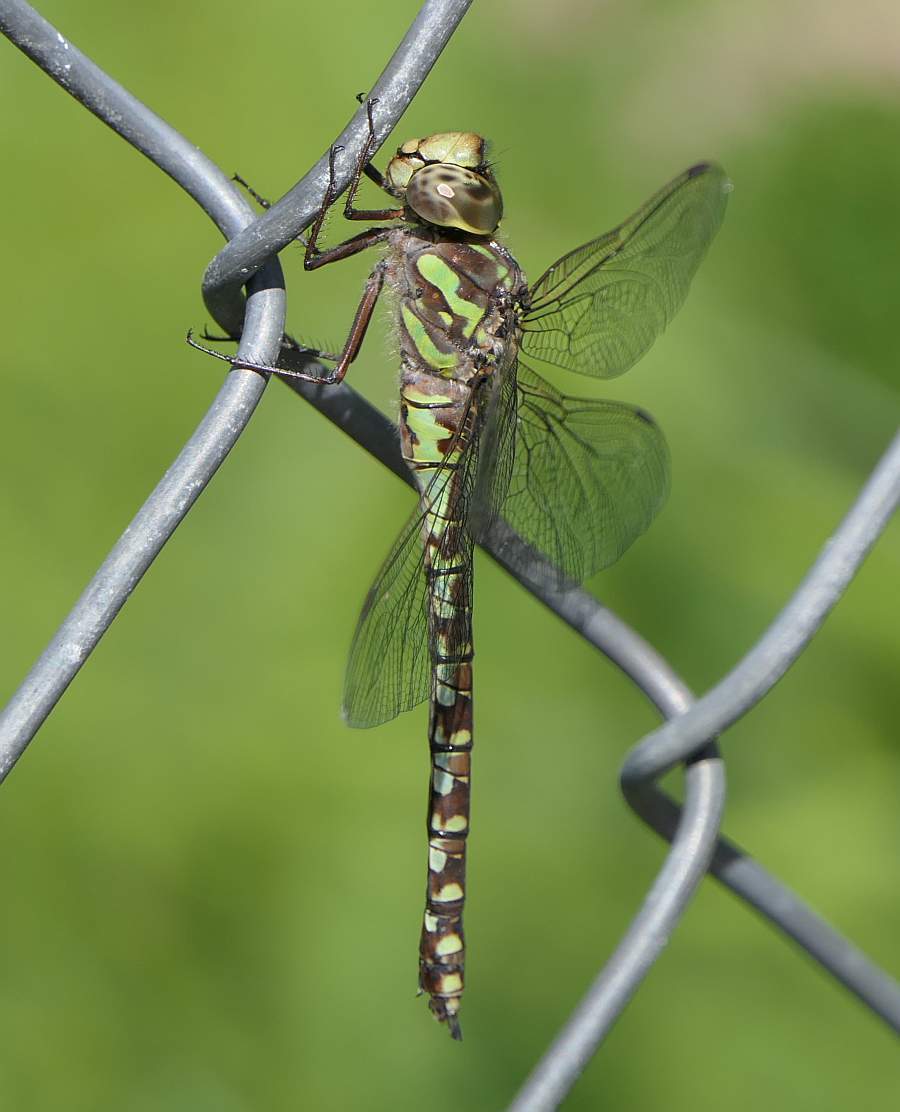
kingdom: Animalia
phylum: Arthropoda
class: Insecta
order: Odonata
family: Aeshnidae
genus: Aeshna
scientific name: Aeshna canadensis
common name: Canada darner
